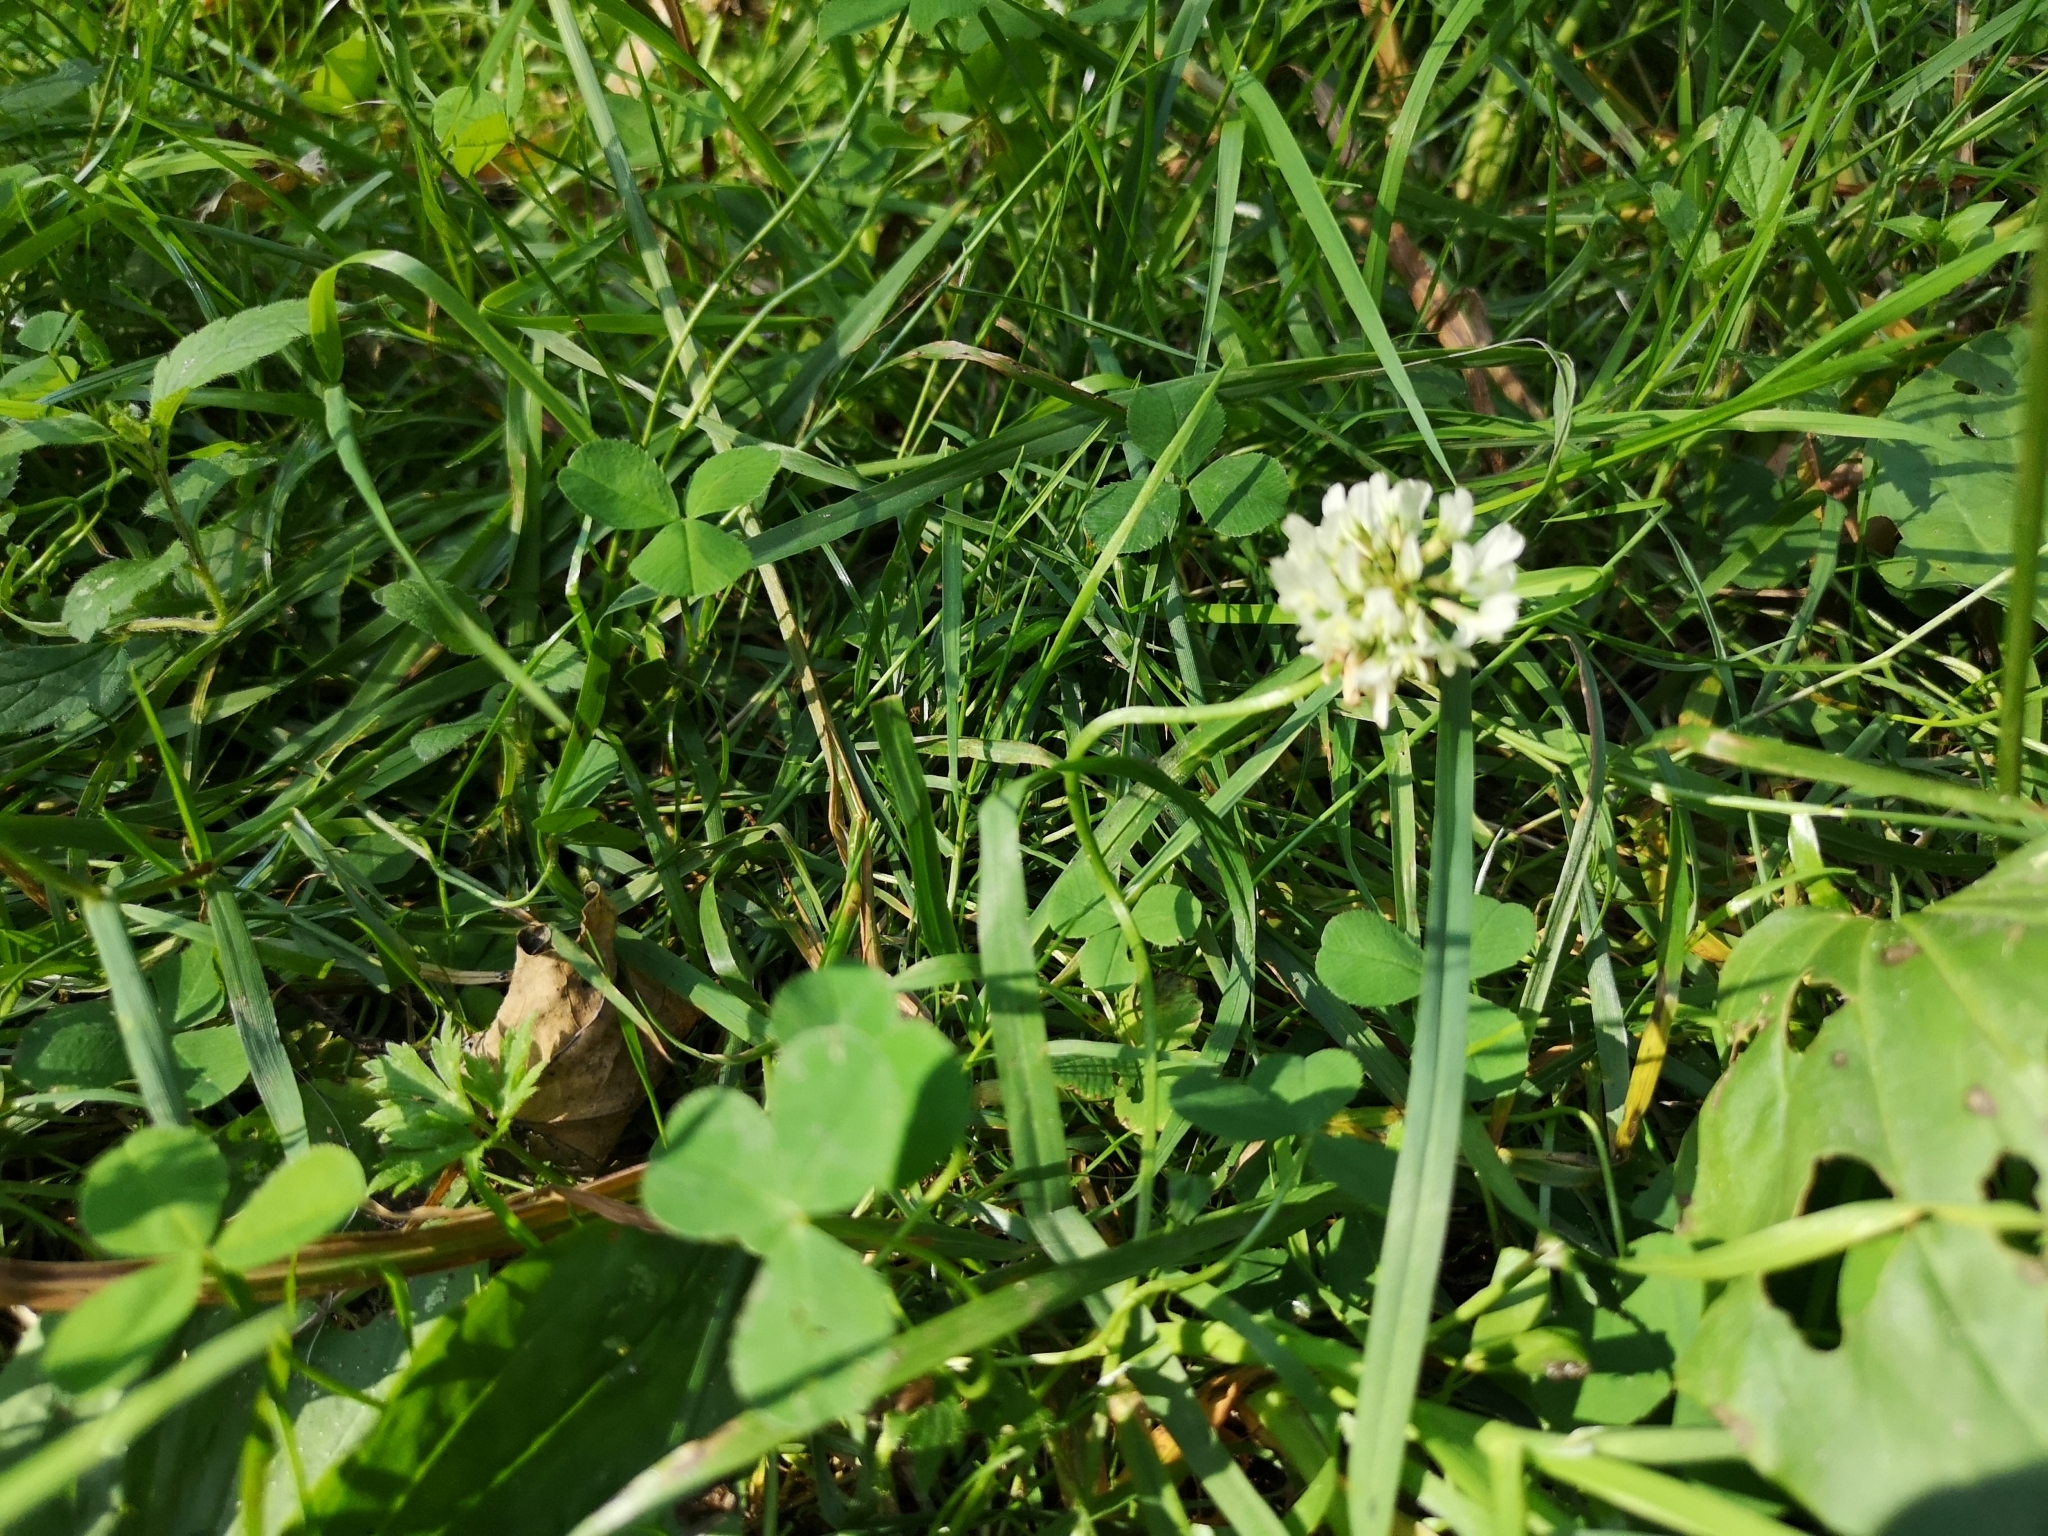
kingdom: Plantae
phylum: Tracheophyta
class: Magnoliopsida
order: Fabales
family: Fabaceae
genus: Trifolium
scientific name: Trifolium repens
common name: White clover
